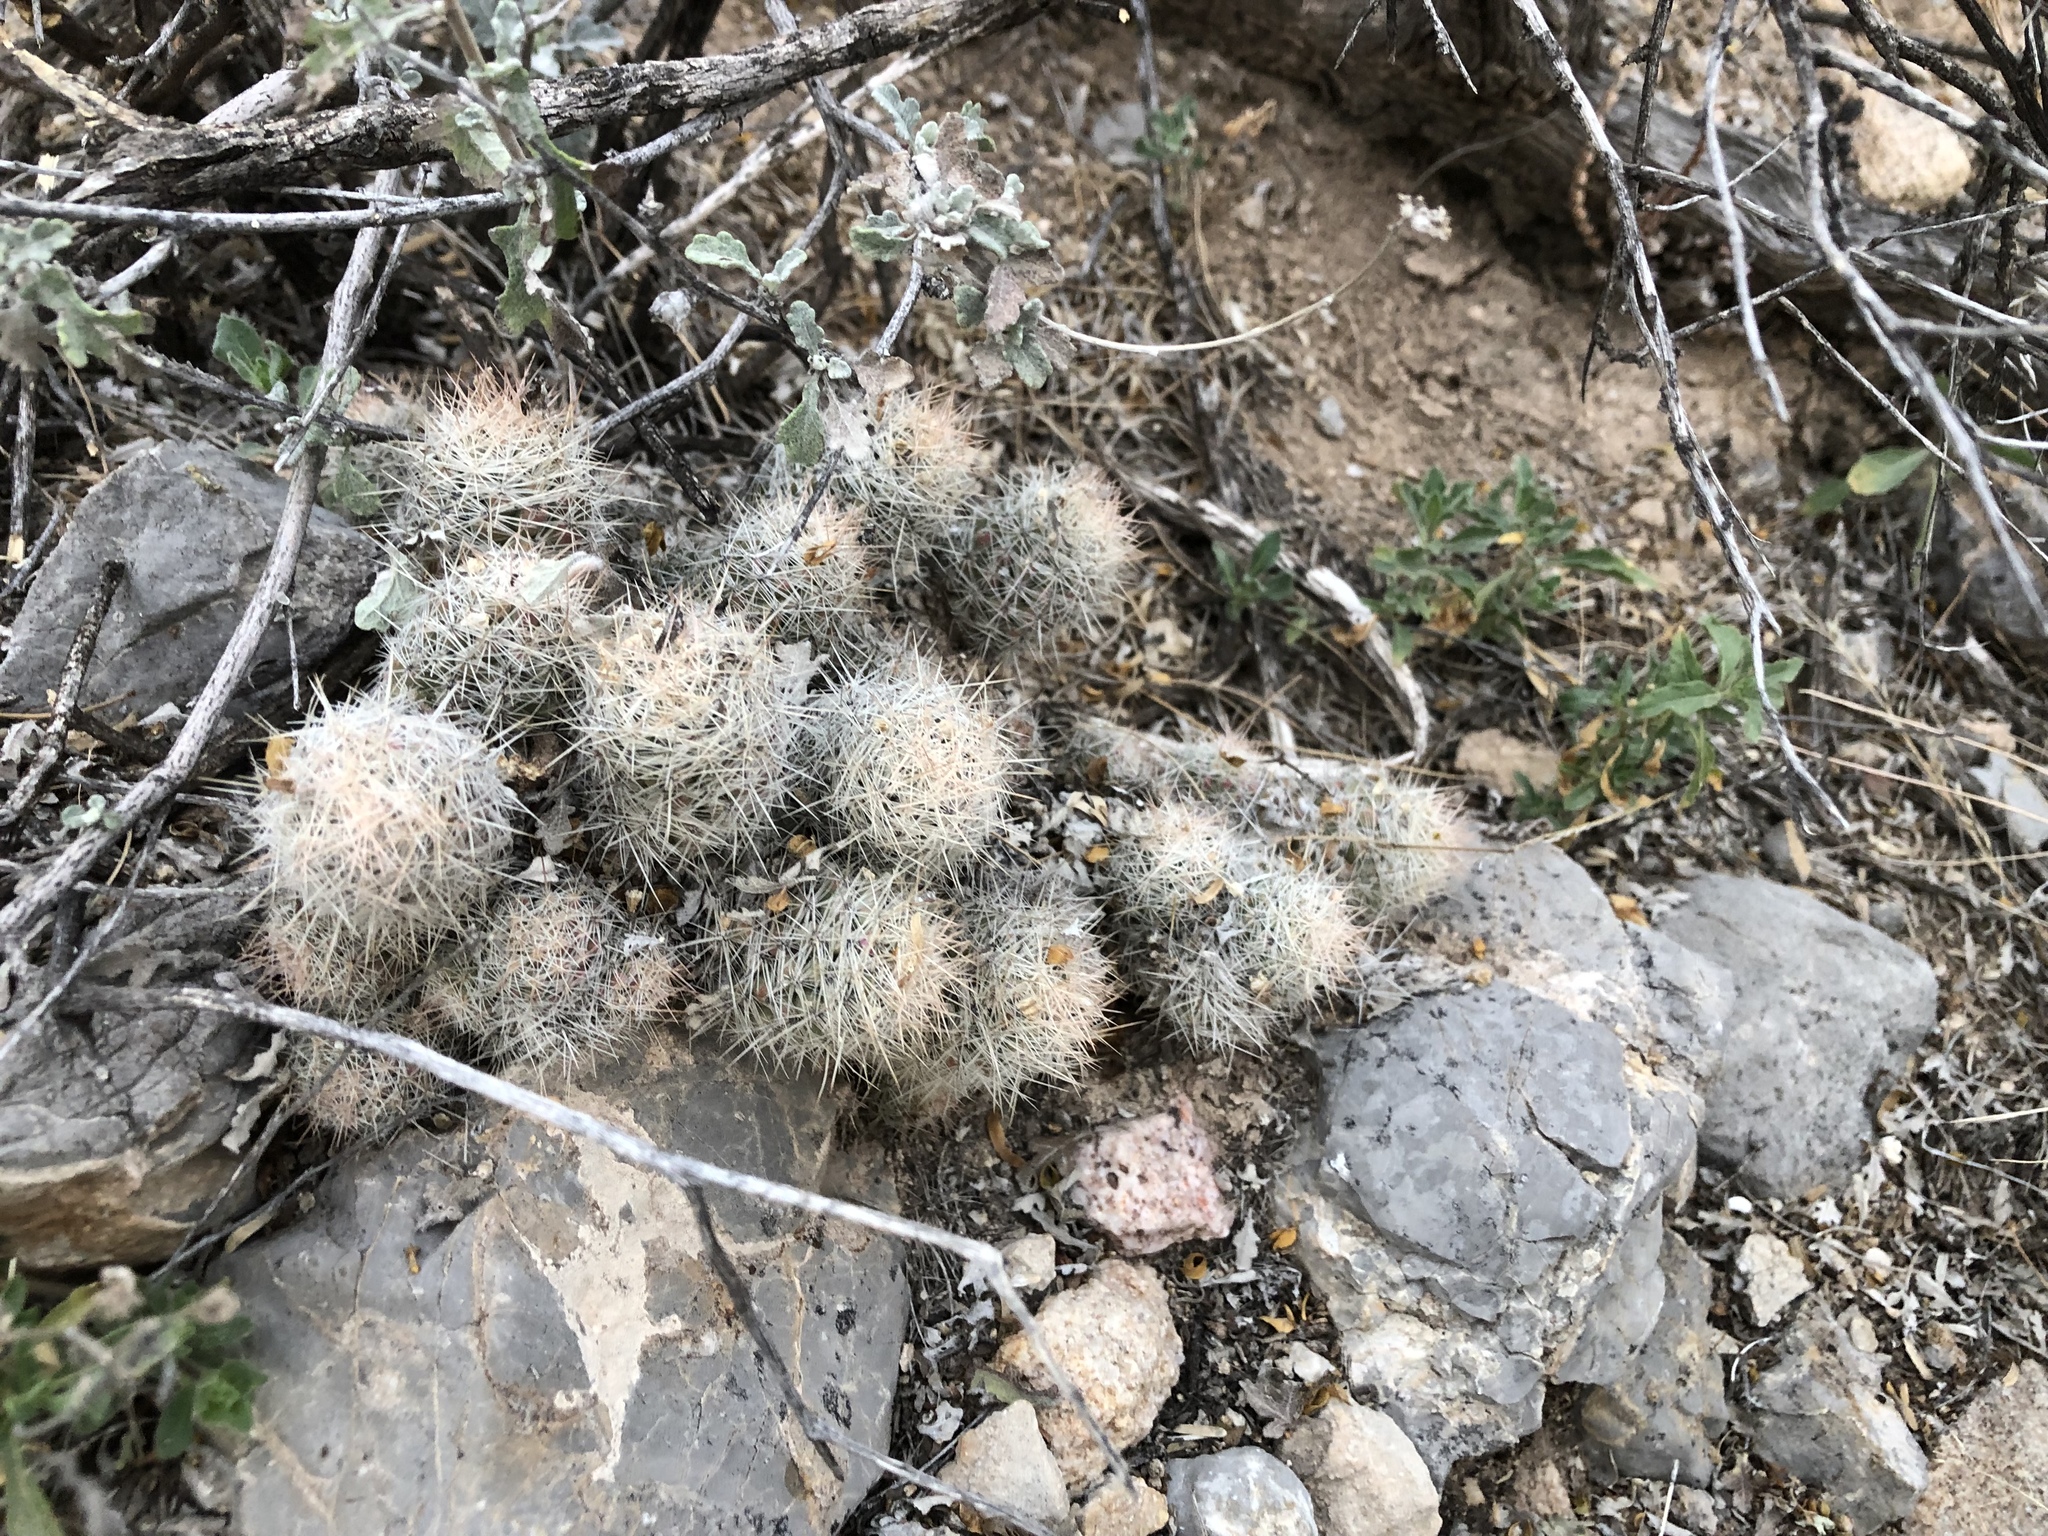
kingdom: Plantae
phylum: Tracheophyta
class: Magnoliopsida
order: Caryophyllales
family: Cactaceae
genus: Pelecyphora
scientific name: Pelecyphora tuberculosa
